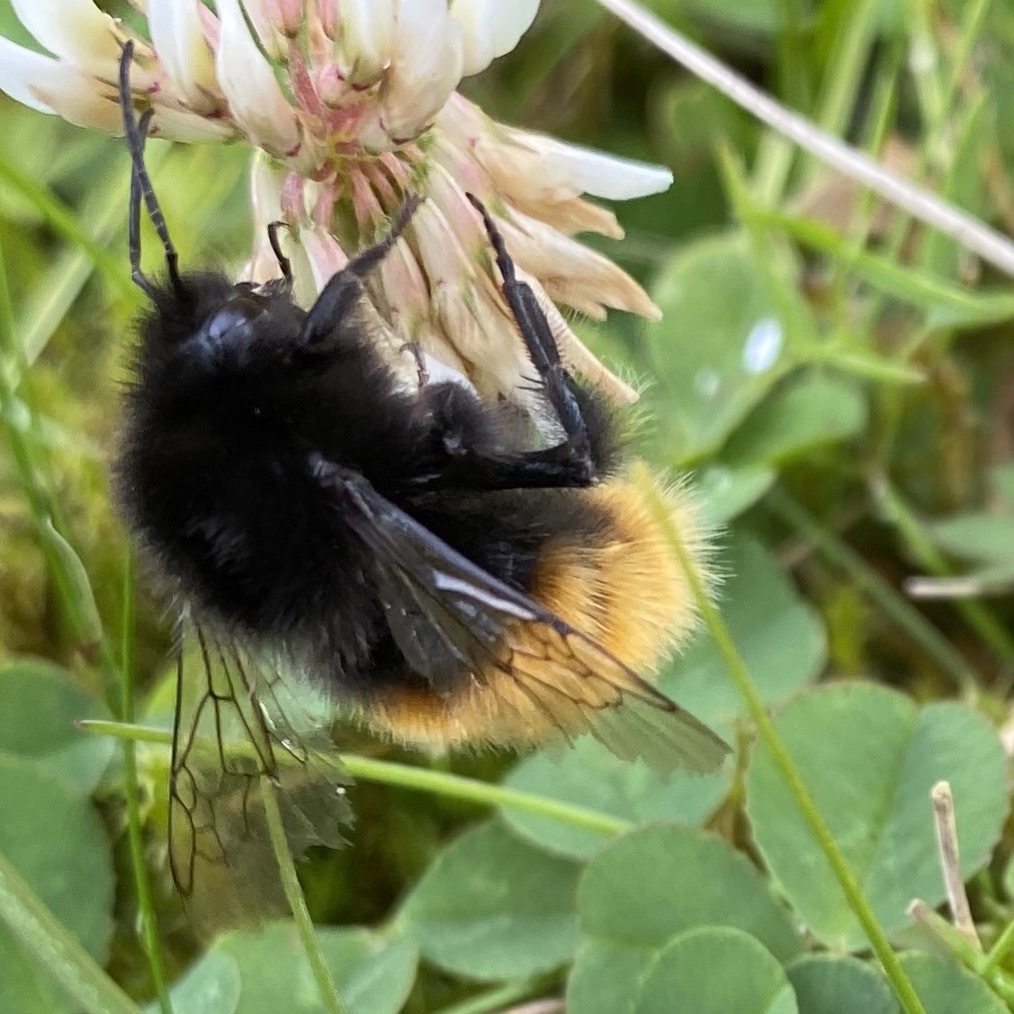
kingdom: Animalia
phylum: Arthropoda
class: Insecta
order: Hymenoptera
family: Apidae
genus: Bombus
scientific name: Bombus alpinus
